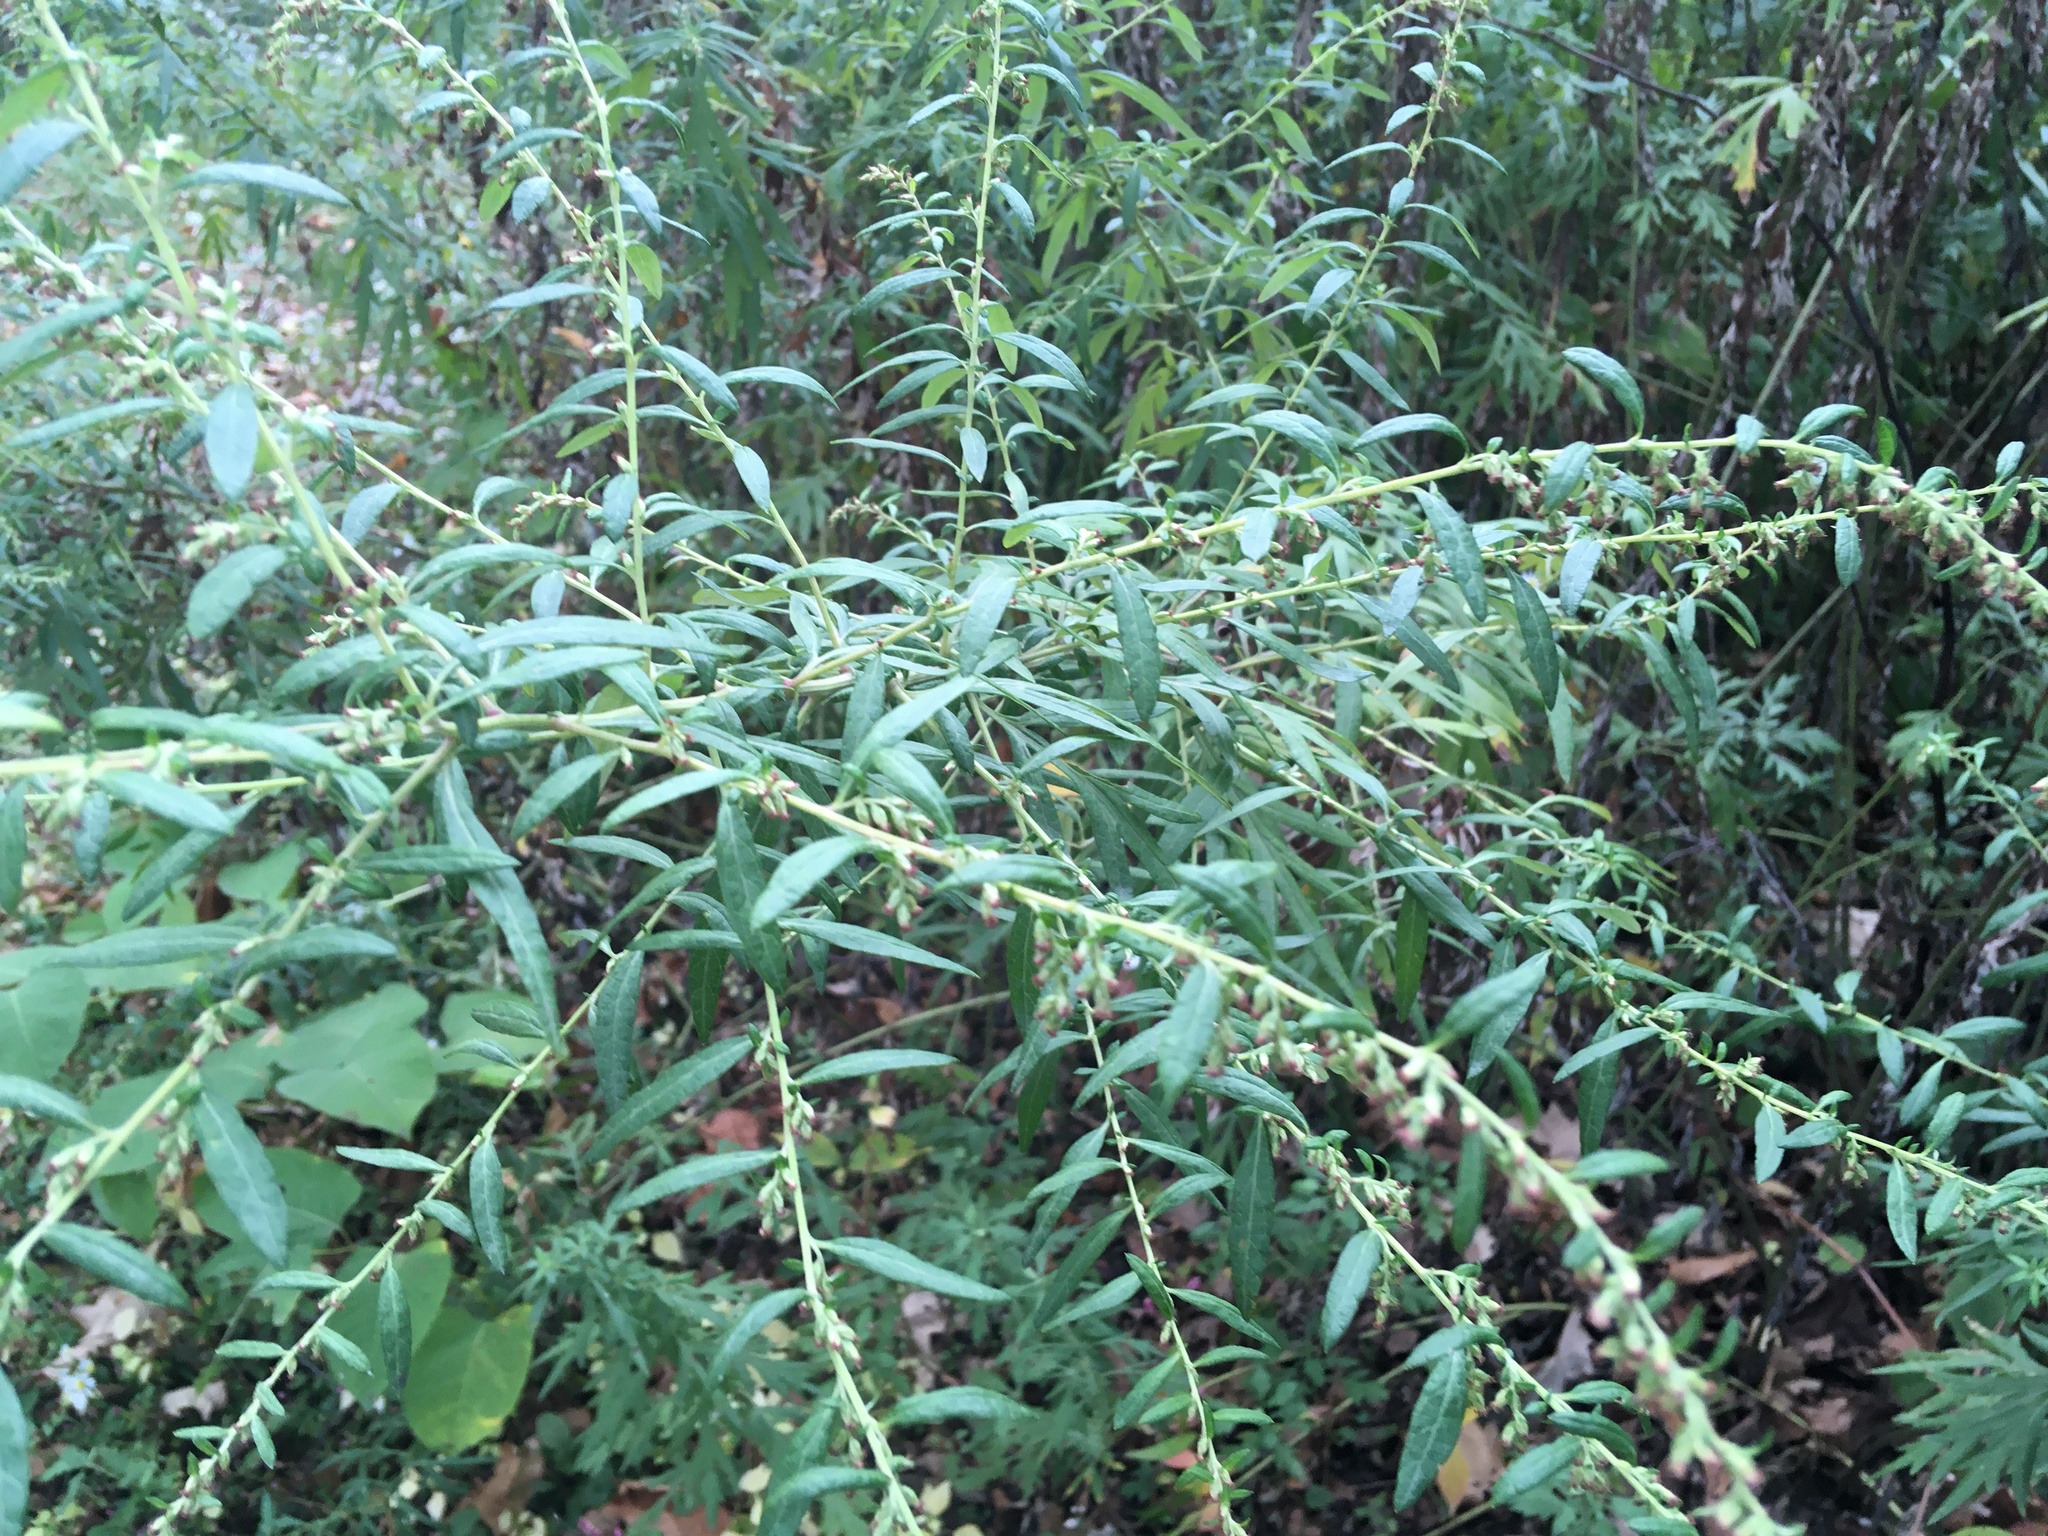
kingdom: Plantae
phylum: Tracheophyta
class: Magnoliopsida
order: Asterales
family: Asteraceae
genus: Artemisia
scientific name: Artemisia vulgaris
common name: Mugwort
